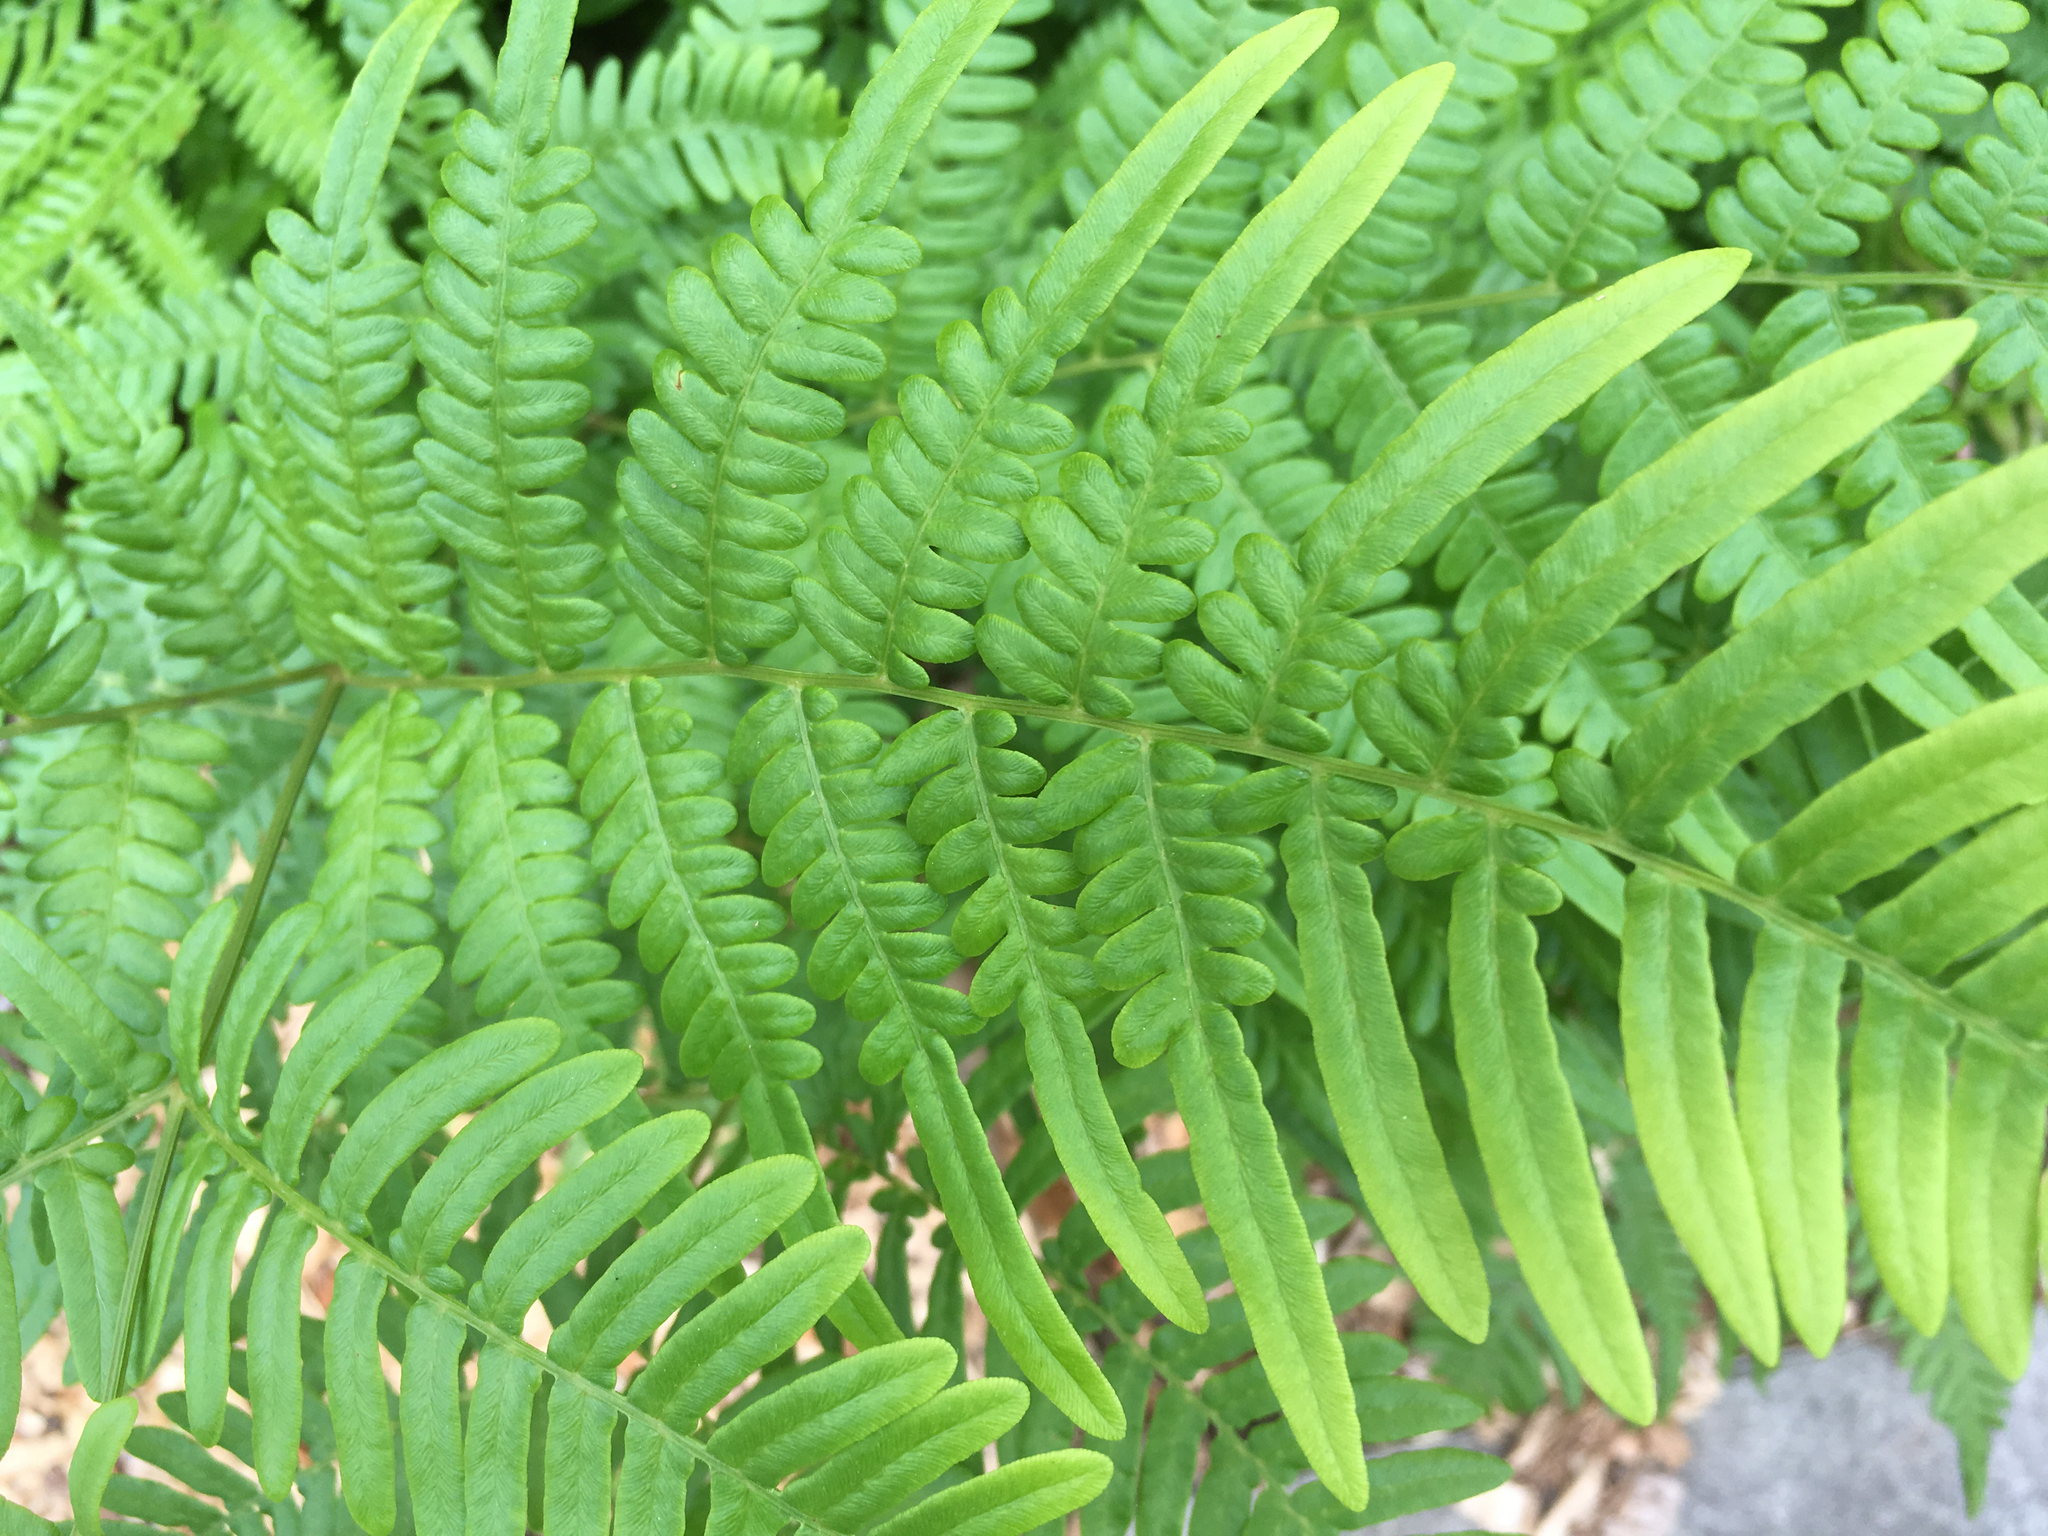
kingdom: Plantae
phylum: Tracheophyta
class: Polypodiopsida
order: Polypodiales
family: Dennstaedtiaceae
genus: Pteridium
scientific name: Pteridium aquilinum
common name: Bracken
